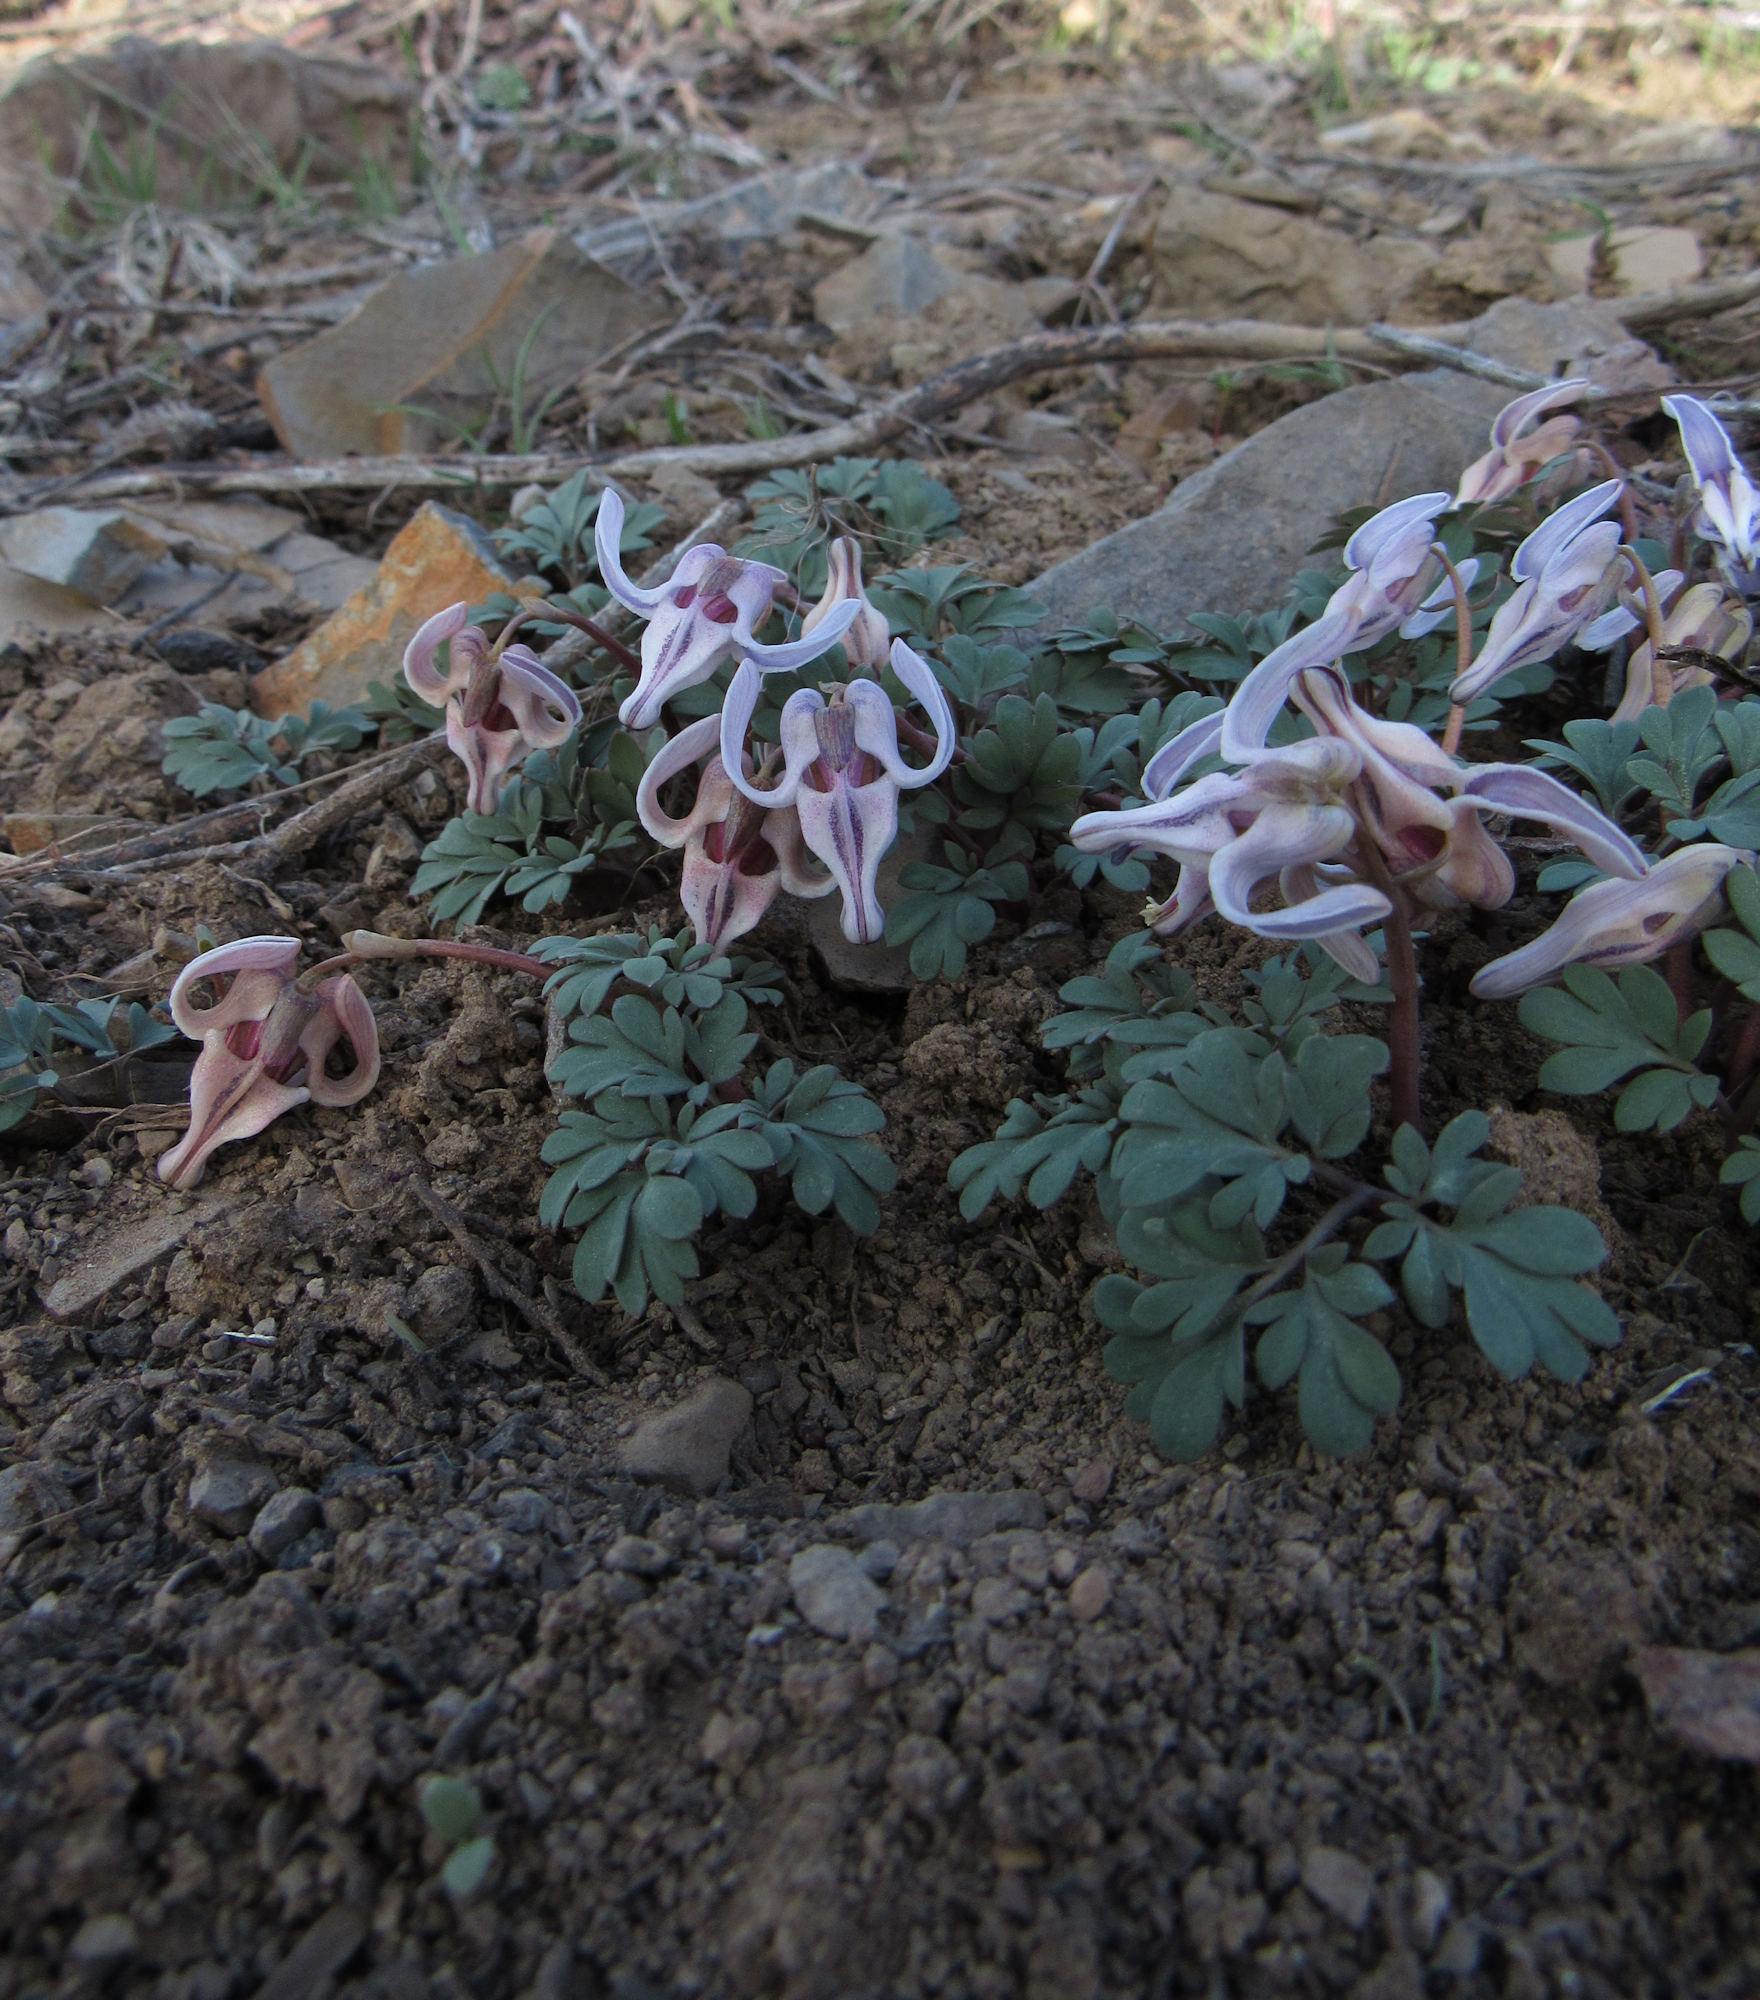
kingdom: Plantae
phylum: Tracheophyta
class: Magnoliopsida
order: Ranunculales
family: Papaveraceae
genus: Dicentra
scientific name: Dicentra uniflora
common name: Steer's-head
